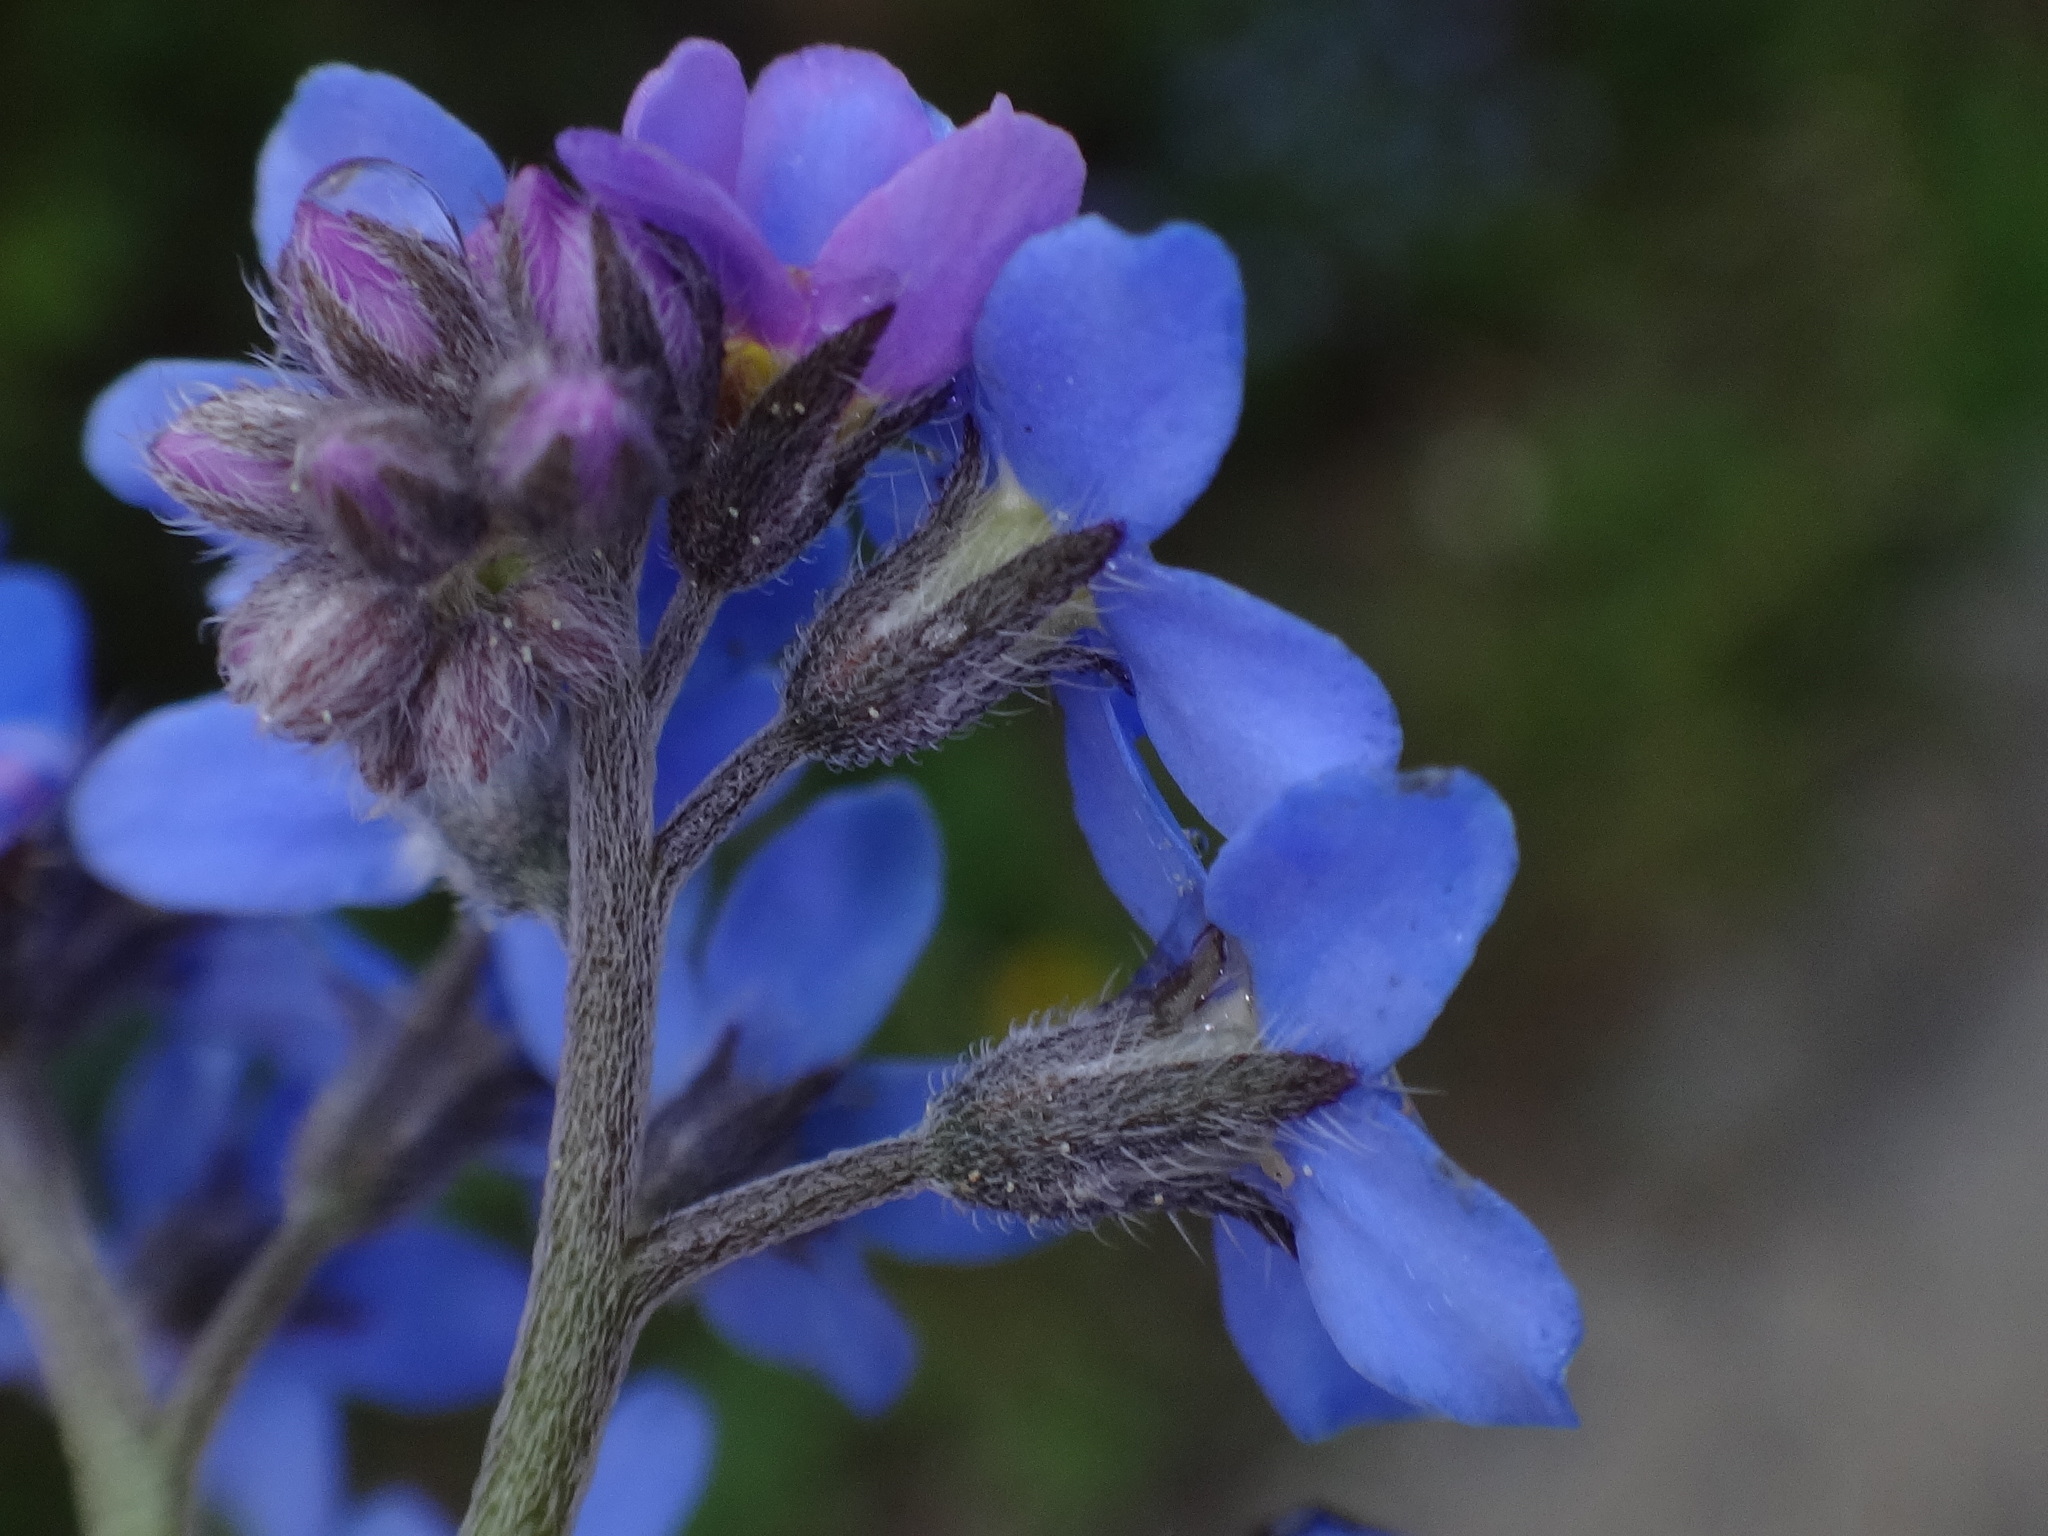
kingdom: Plantae
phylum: Tracheophyta
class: Magnoliopsida
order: Boraginales
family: Boraginaceae
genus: Myosotis
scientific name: Myosotis sylvatica
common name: Wood forget-me-not
